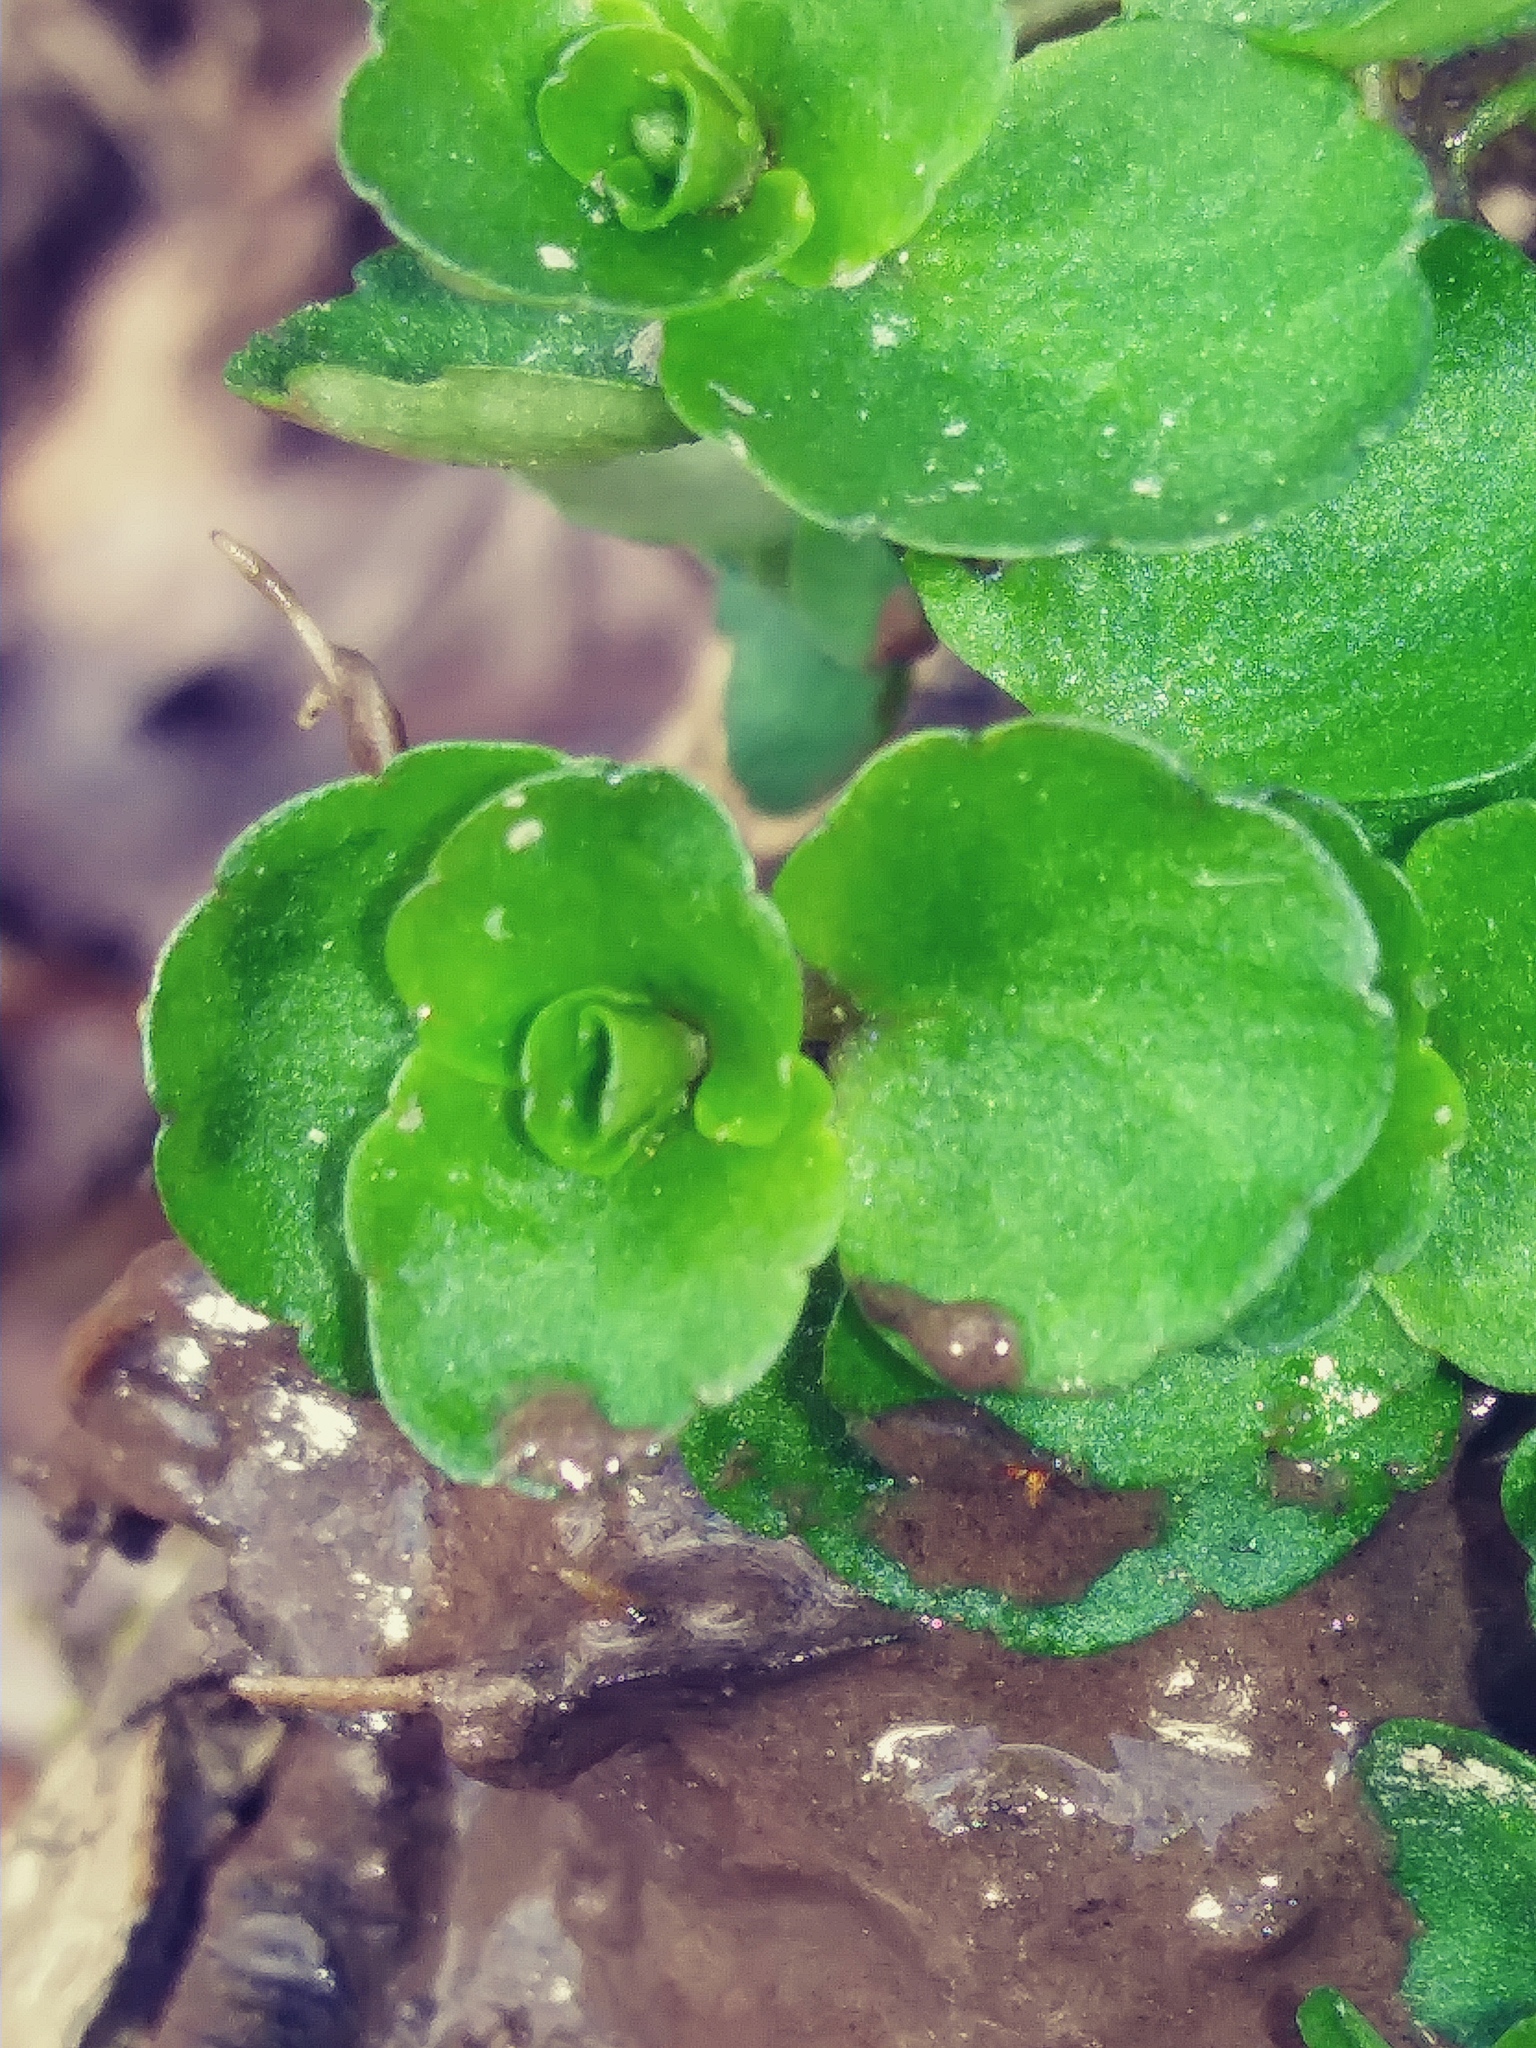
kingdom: Plantae
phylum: Tracheophyta
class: Magnoliopsida
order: Saxifragales
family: Saxifragaceae
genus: Chrysosplenium
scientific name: Chrysosplenium americanum
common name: American golden-saxifrage
